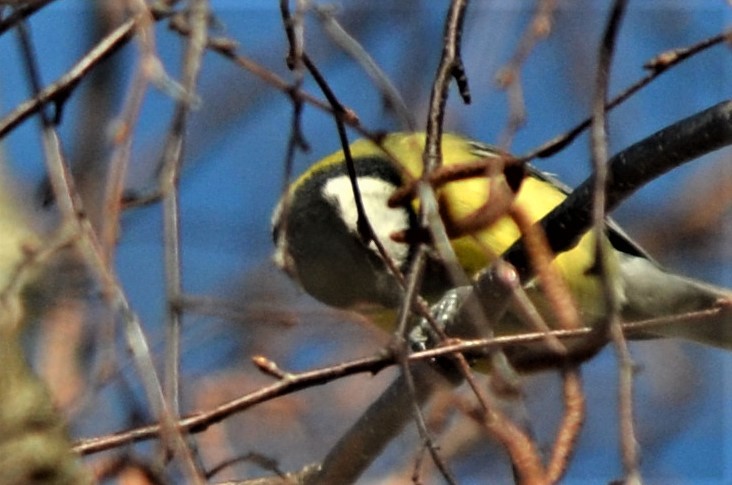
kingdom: Animalia
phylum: Chordata
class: Aves
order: Passeriformes
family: Paridae
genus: Parus
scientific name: Parus major
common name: Great tit
